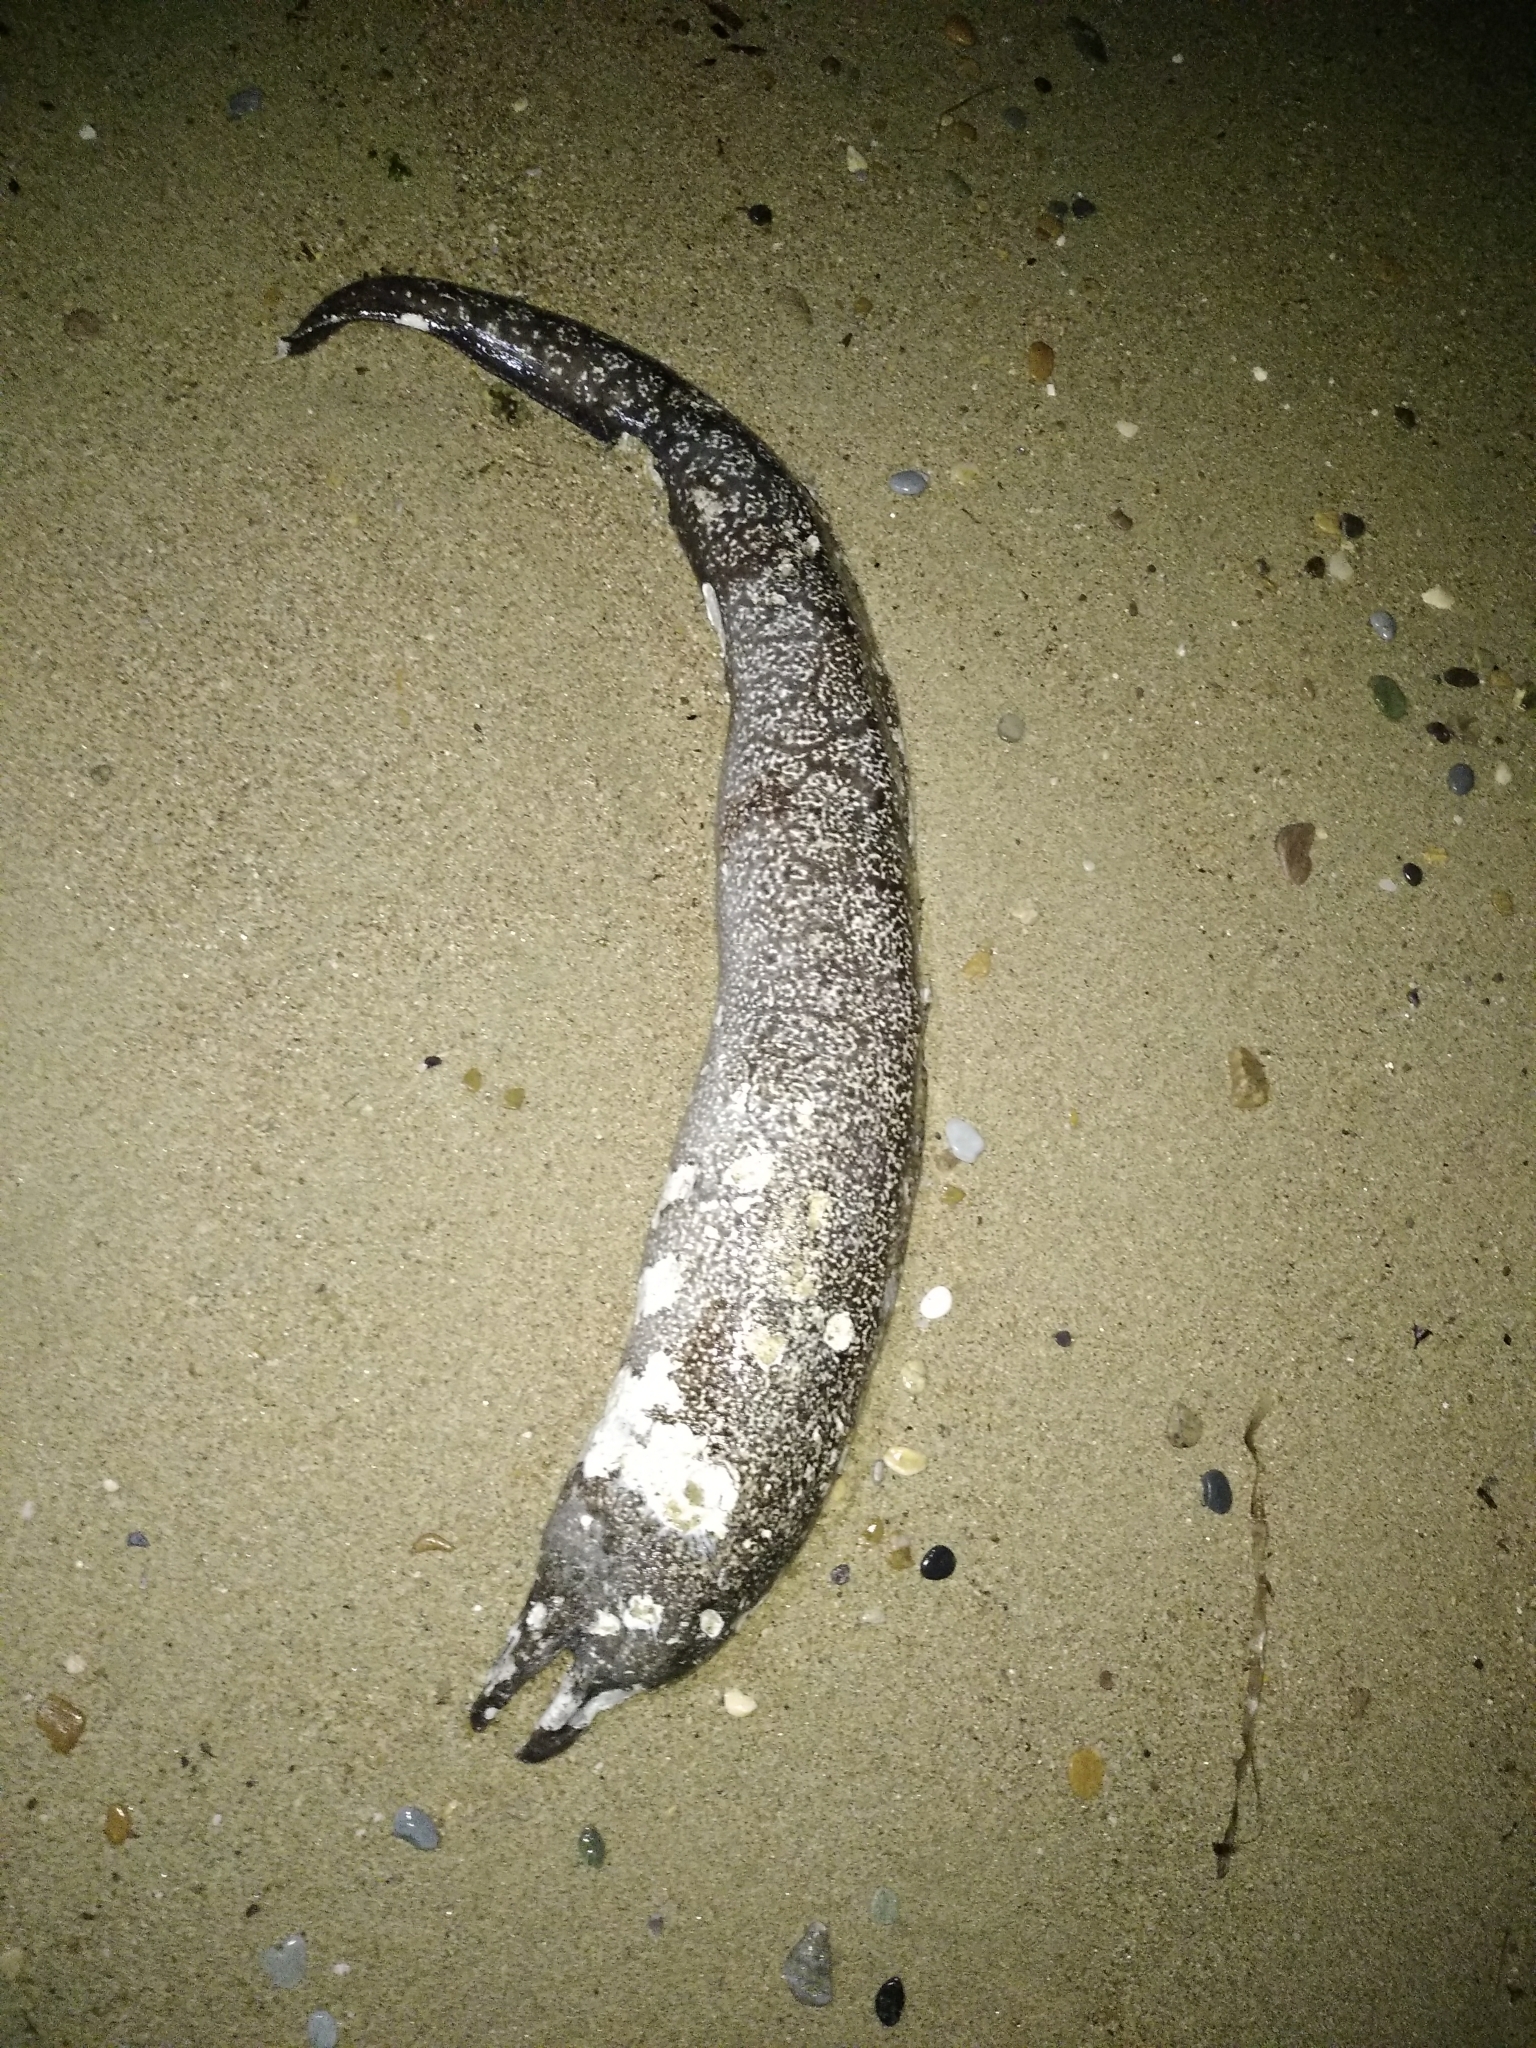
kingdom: Animalia
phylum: Chordata
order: Anguilliformes
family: Muraenidae
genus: Muraena
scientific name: Muraena helena
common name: Mediterranean moray
